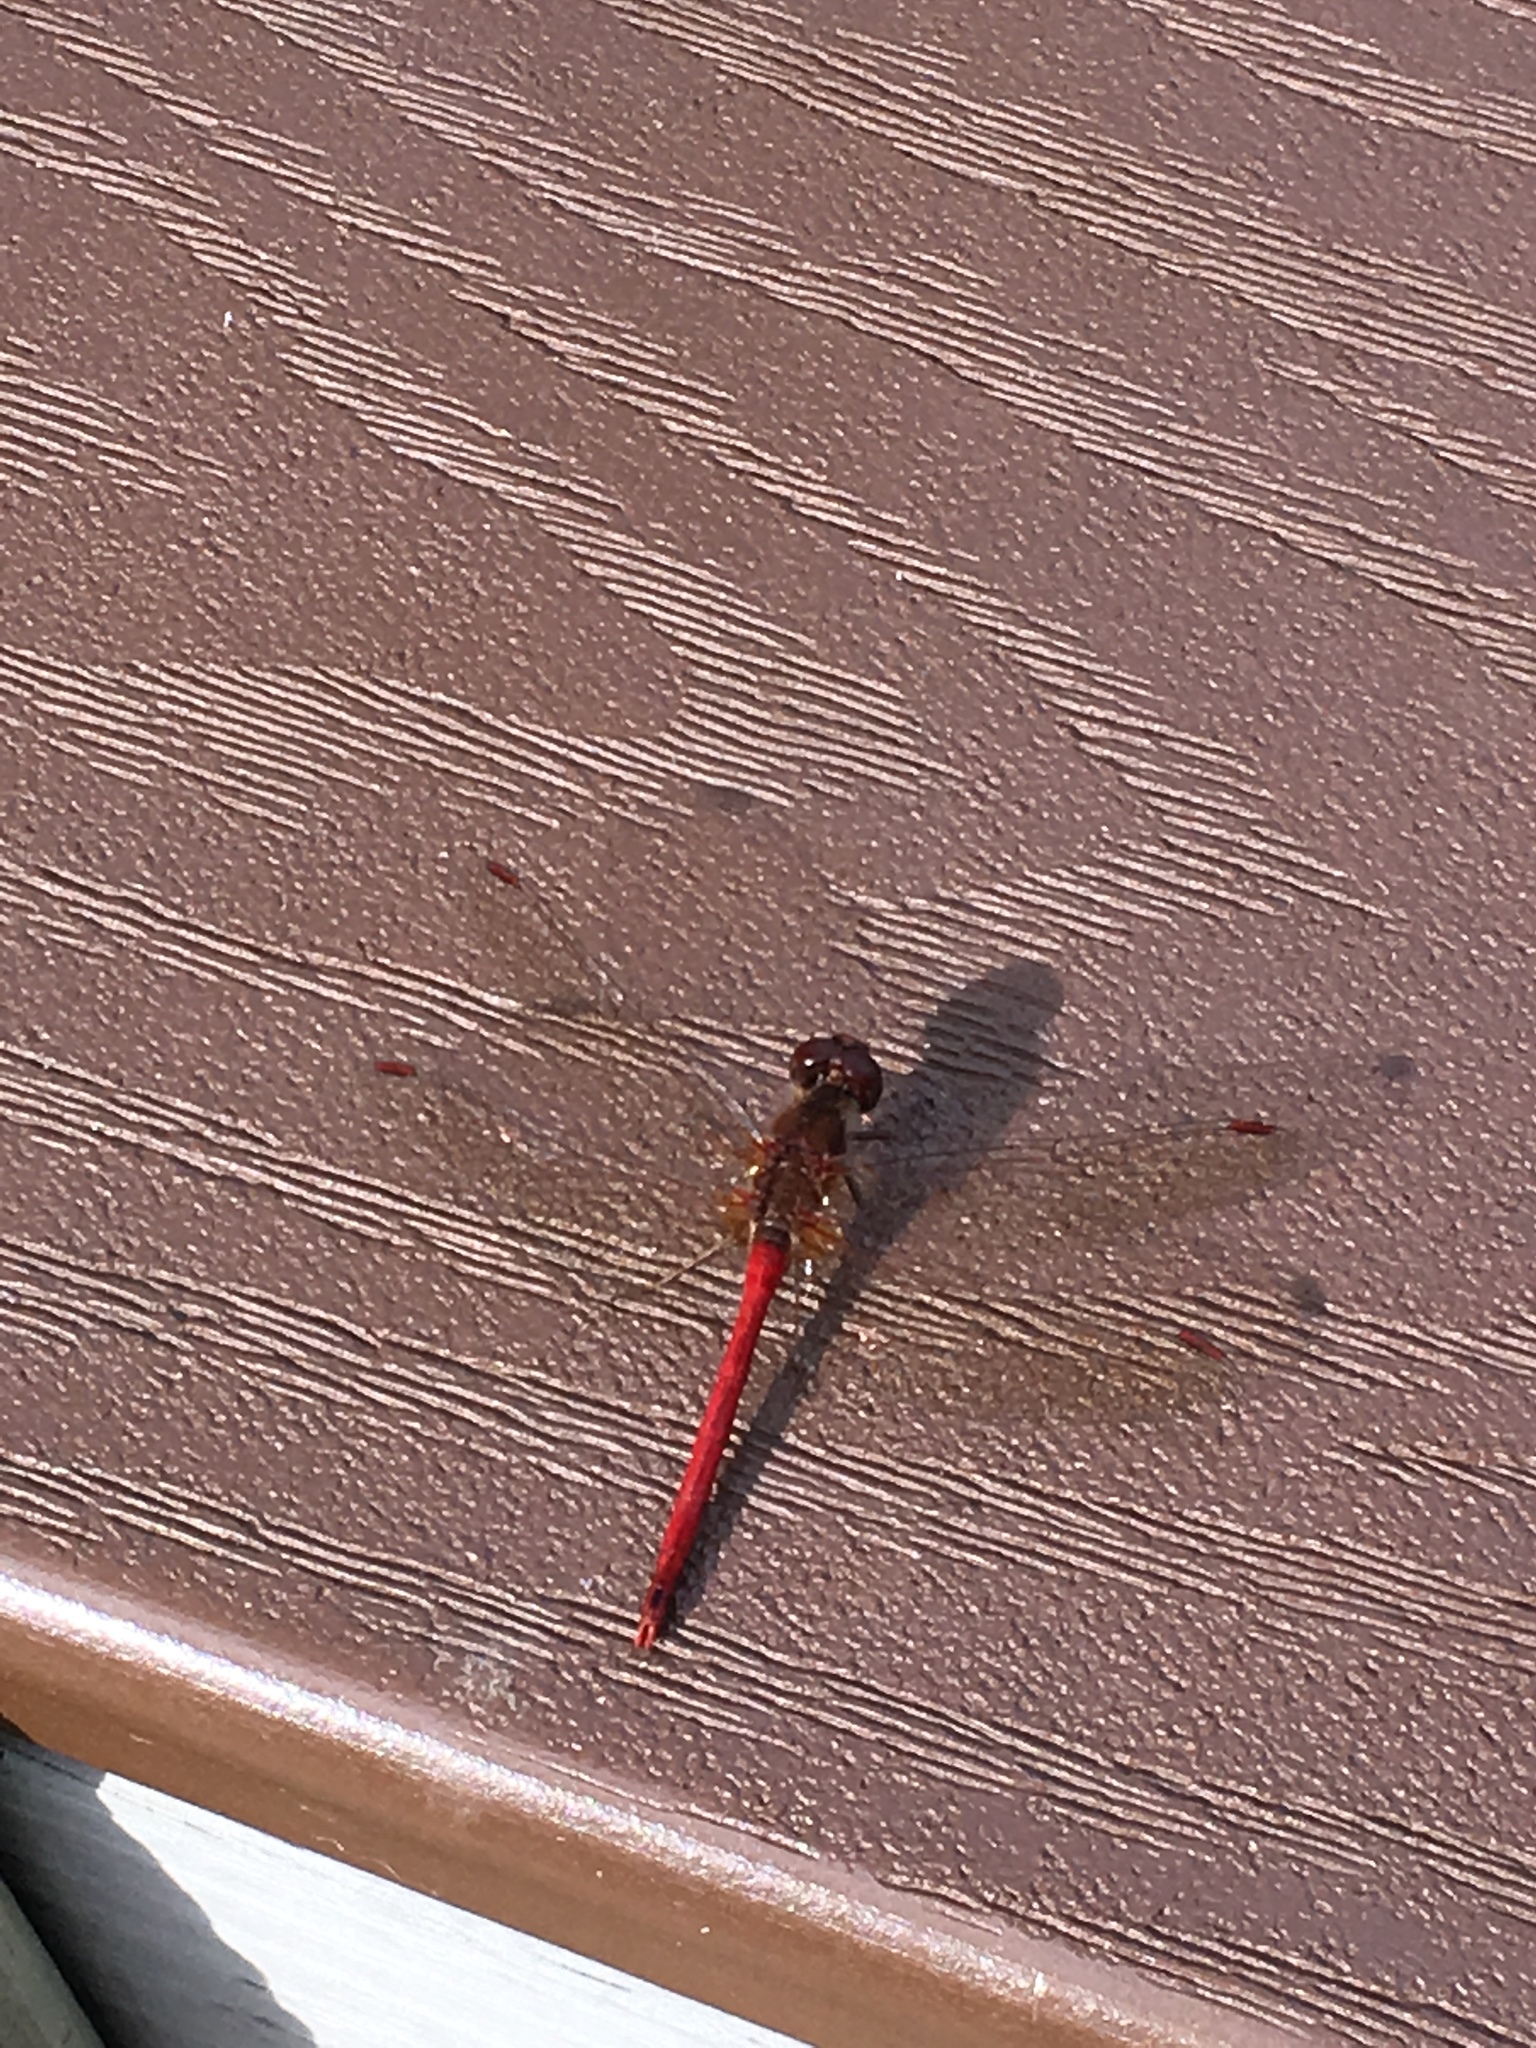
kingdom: Animalia
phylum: Arthropoda
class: Insecta
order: Odonata
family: Libellulidae
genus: Sympetrum
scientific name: Sympetrum vicinum
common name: Autumn meadowhawk
